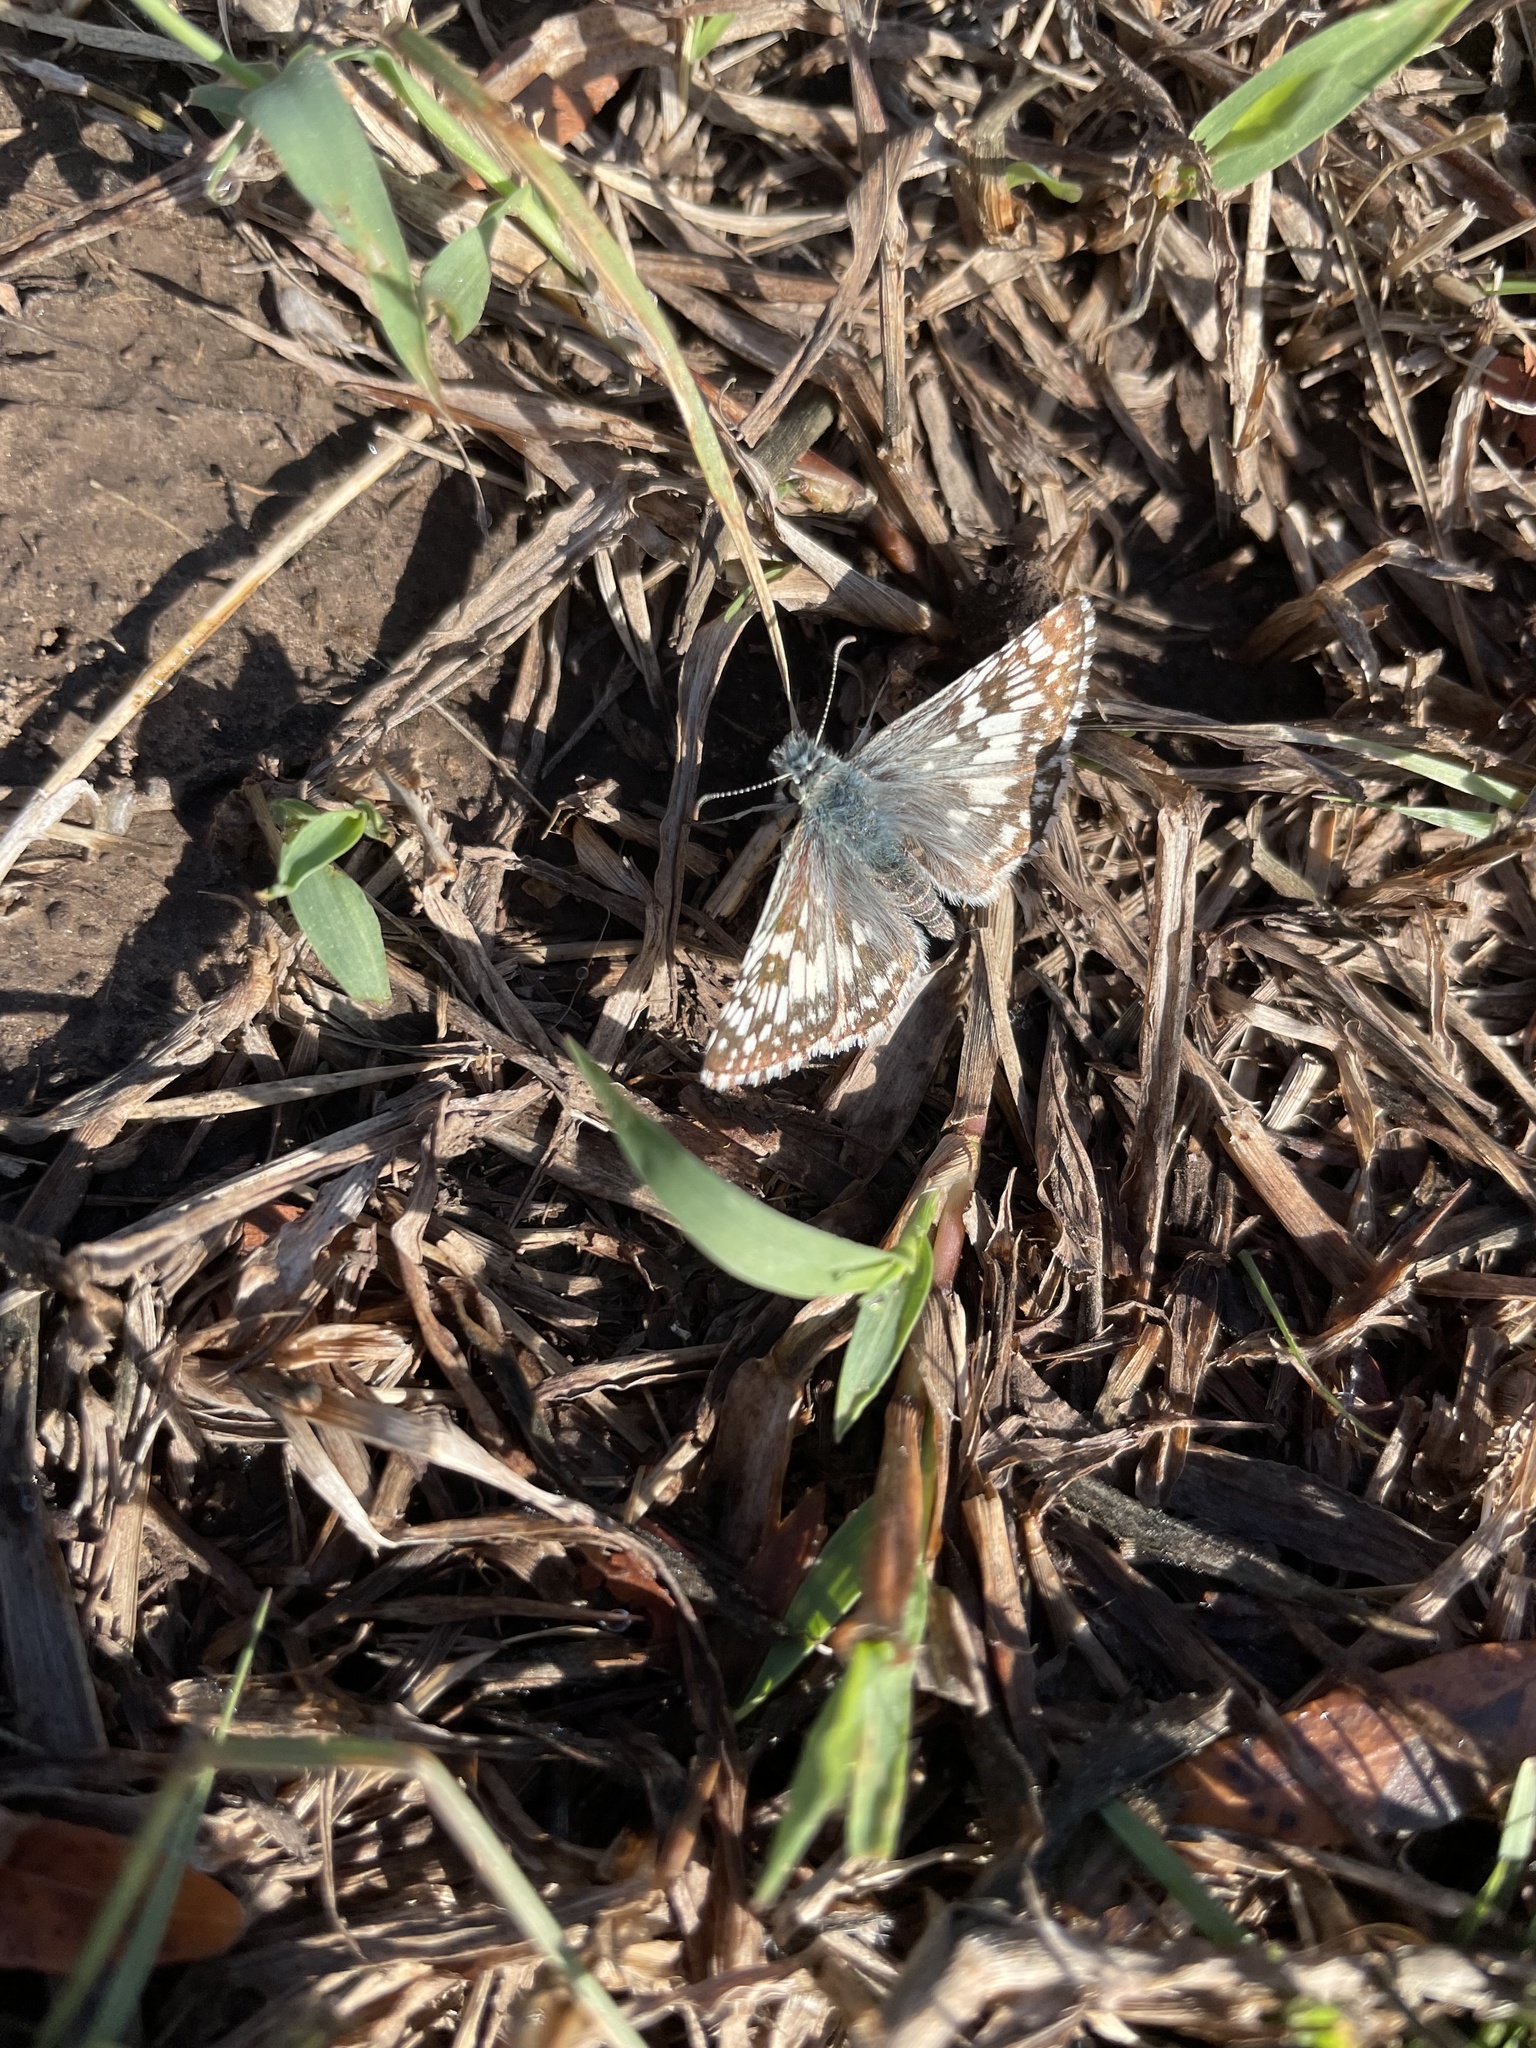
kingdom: Animalia
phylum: Arthropoda
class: Insecta
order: Lepidoptera
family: Hesperiidae
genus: Burnsius
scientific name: Burnsius communis
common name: Common checkered-skipper
